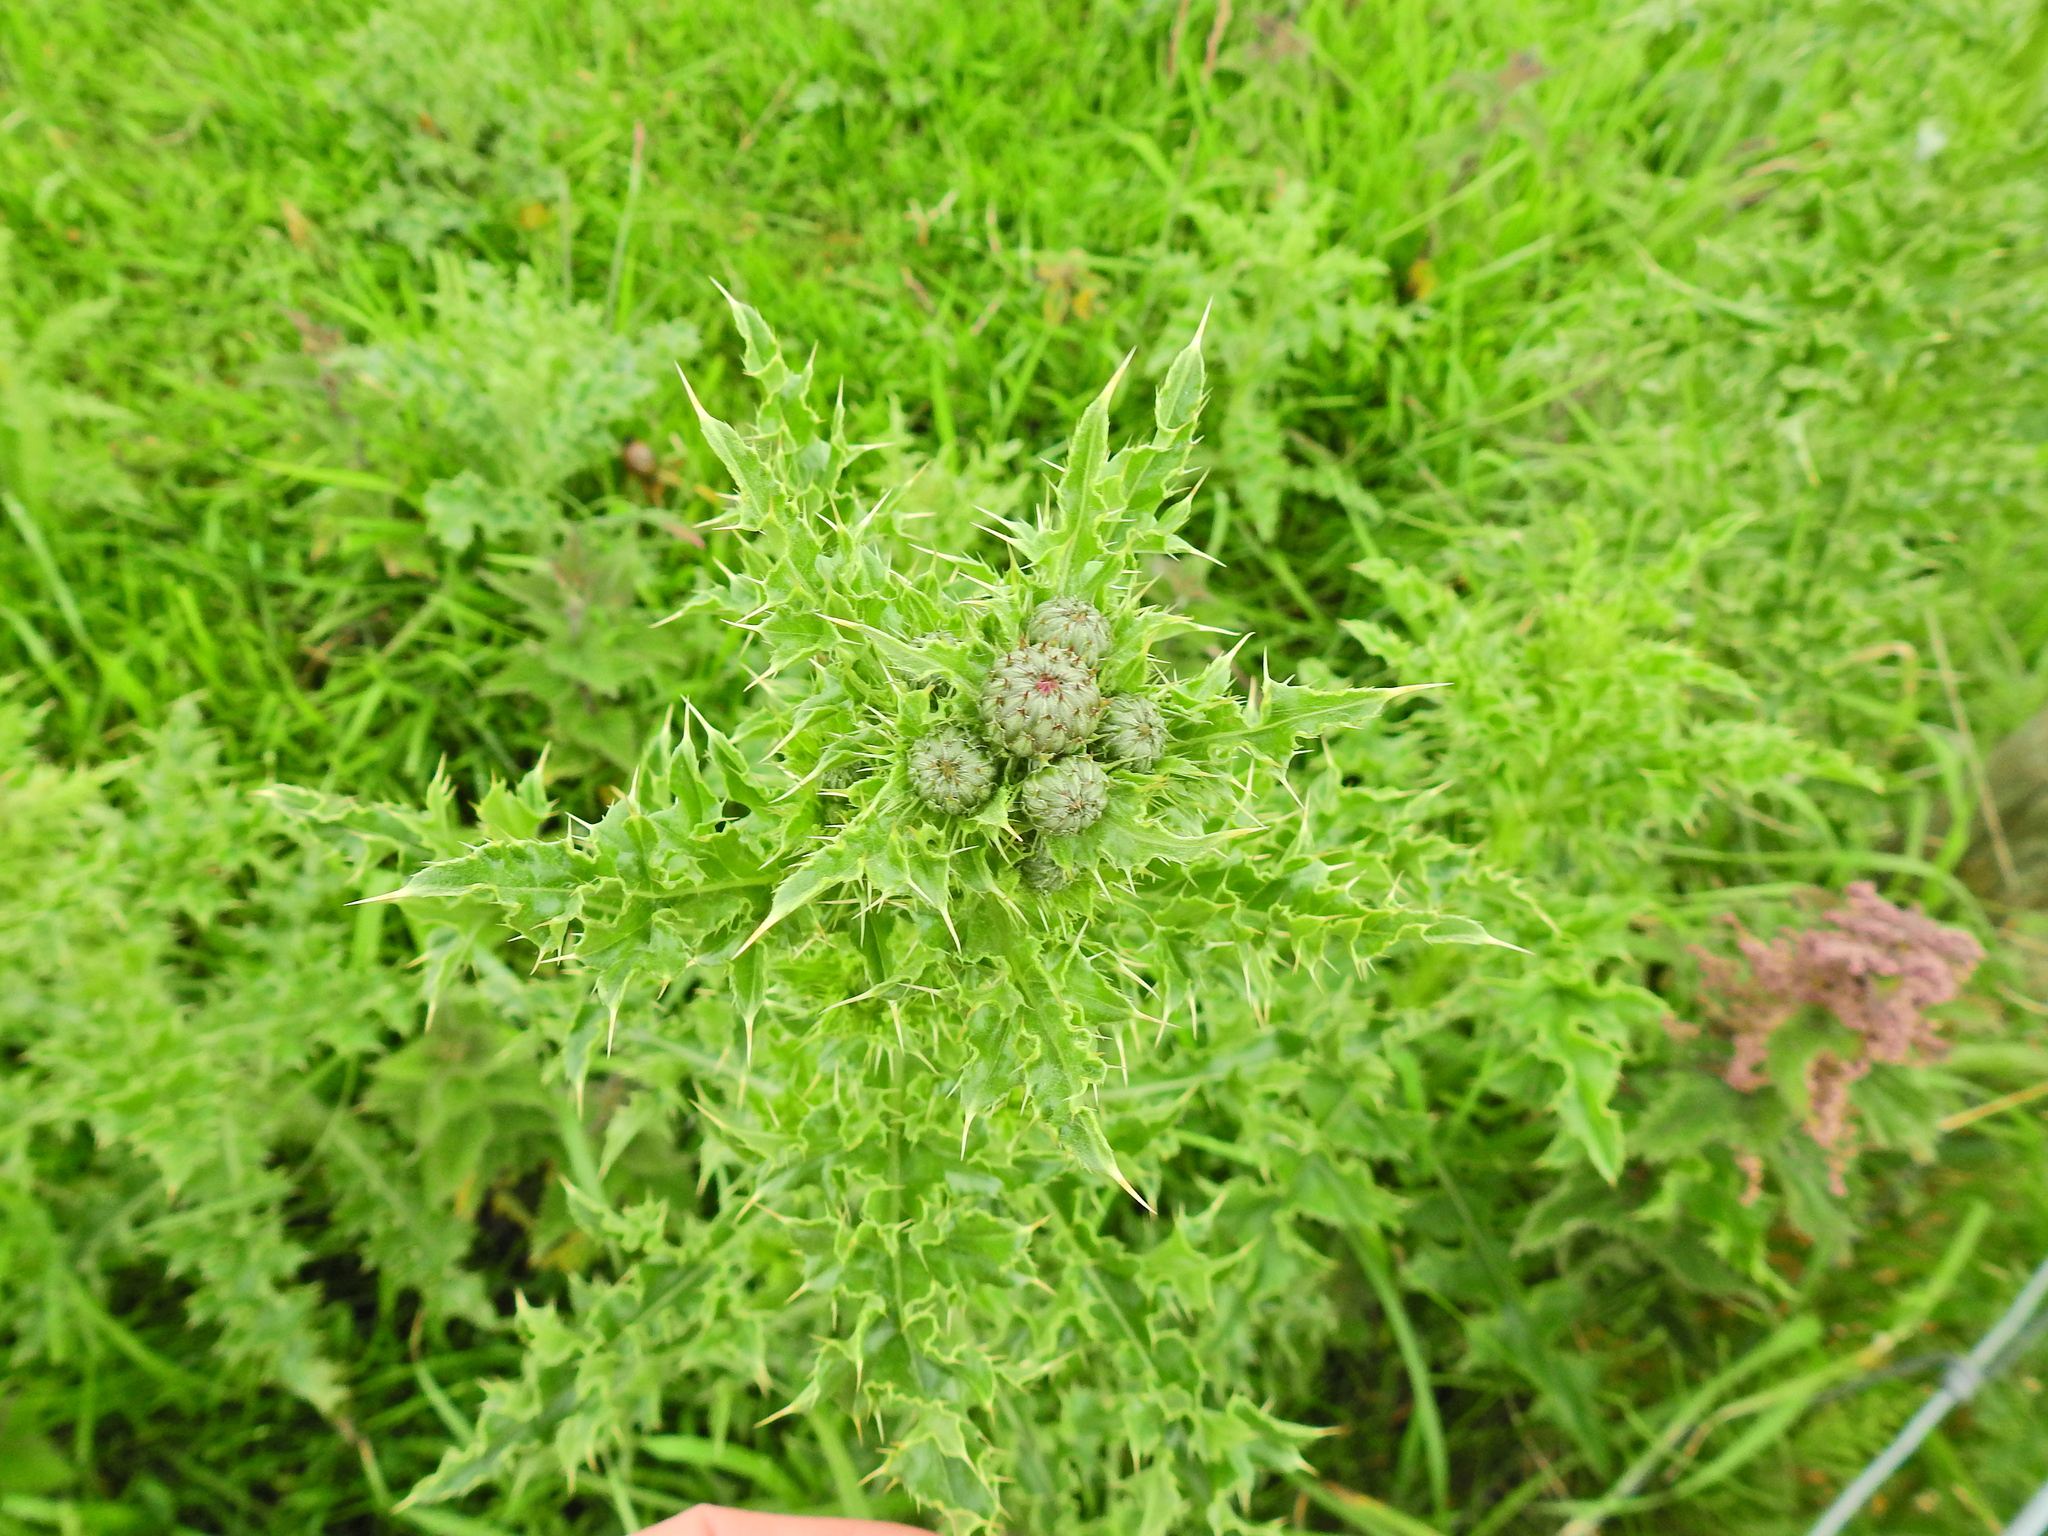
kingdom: Plantae
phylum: Tracheophyta
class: Magnoliopsida
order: Asterales
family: Asteraceae
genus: Cirsium
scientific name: Cirsium arvense
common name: Creeping thistle
